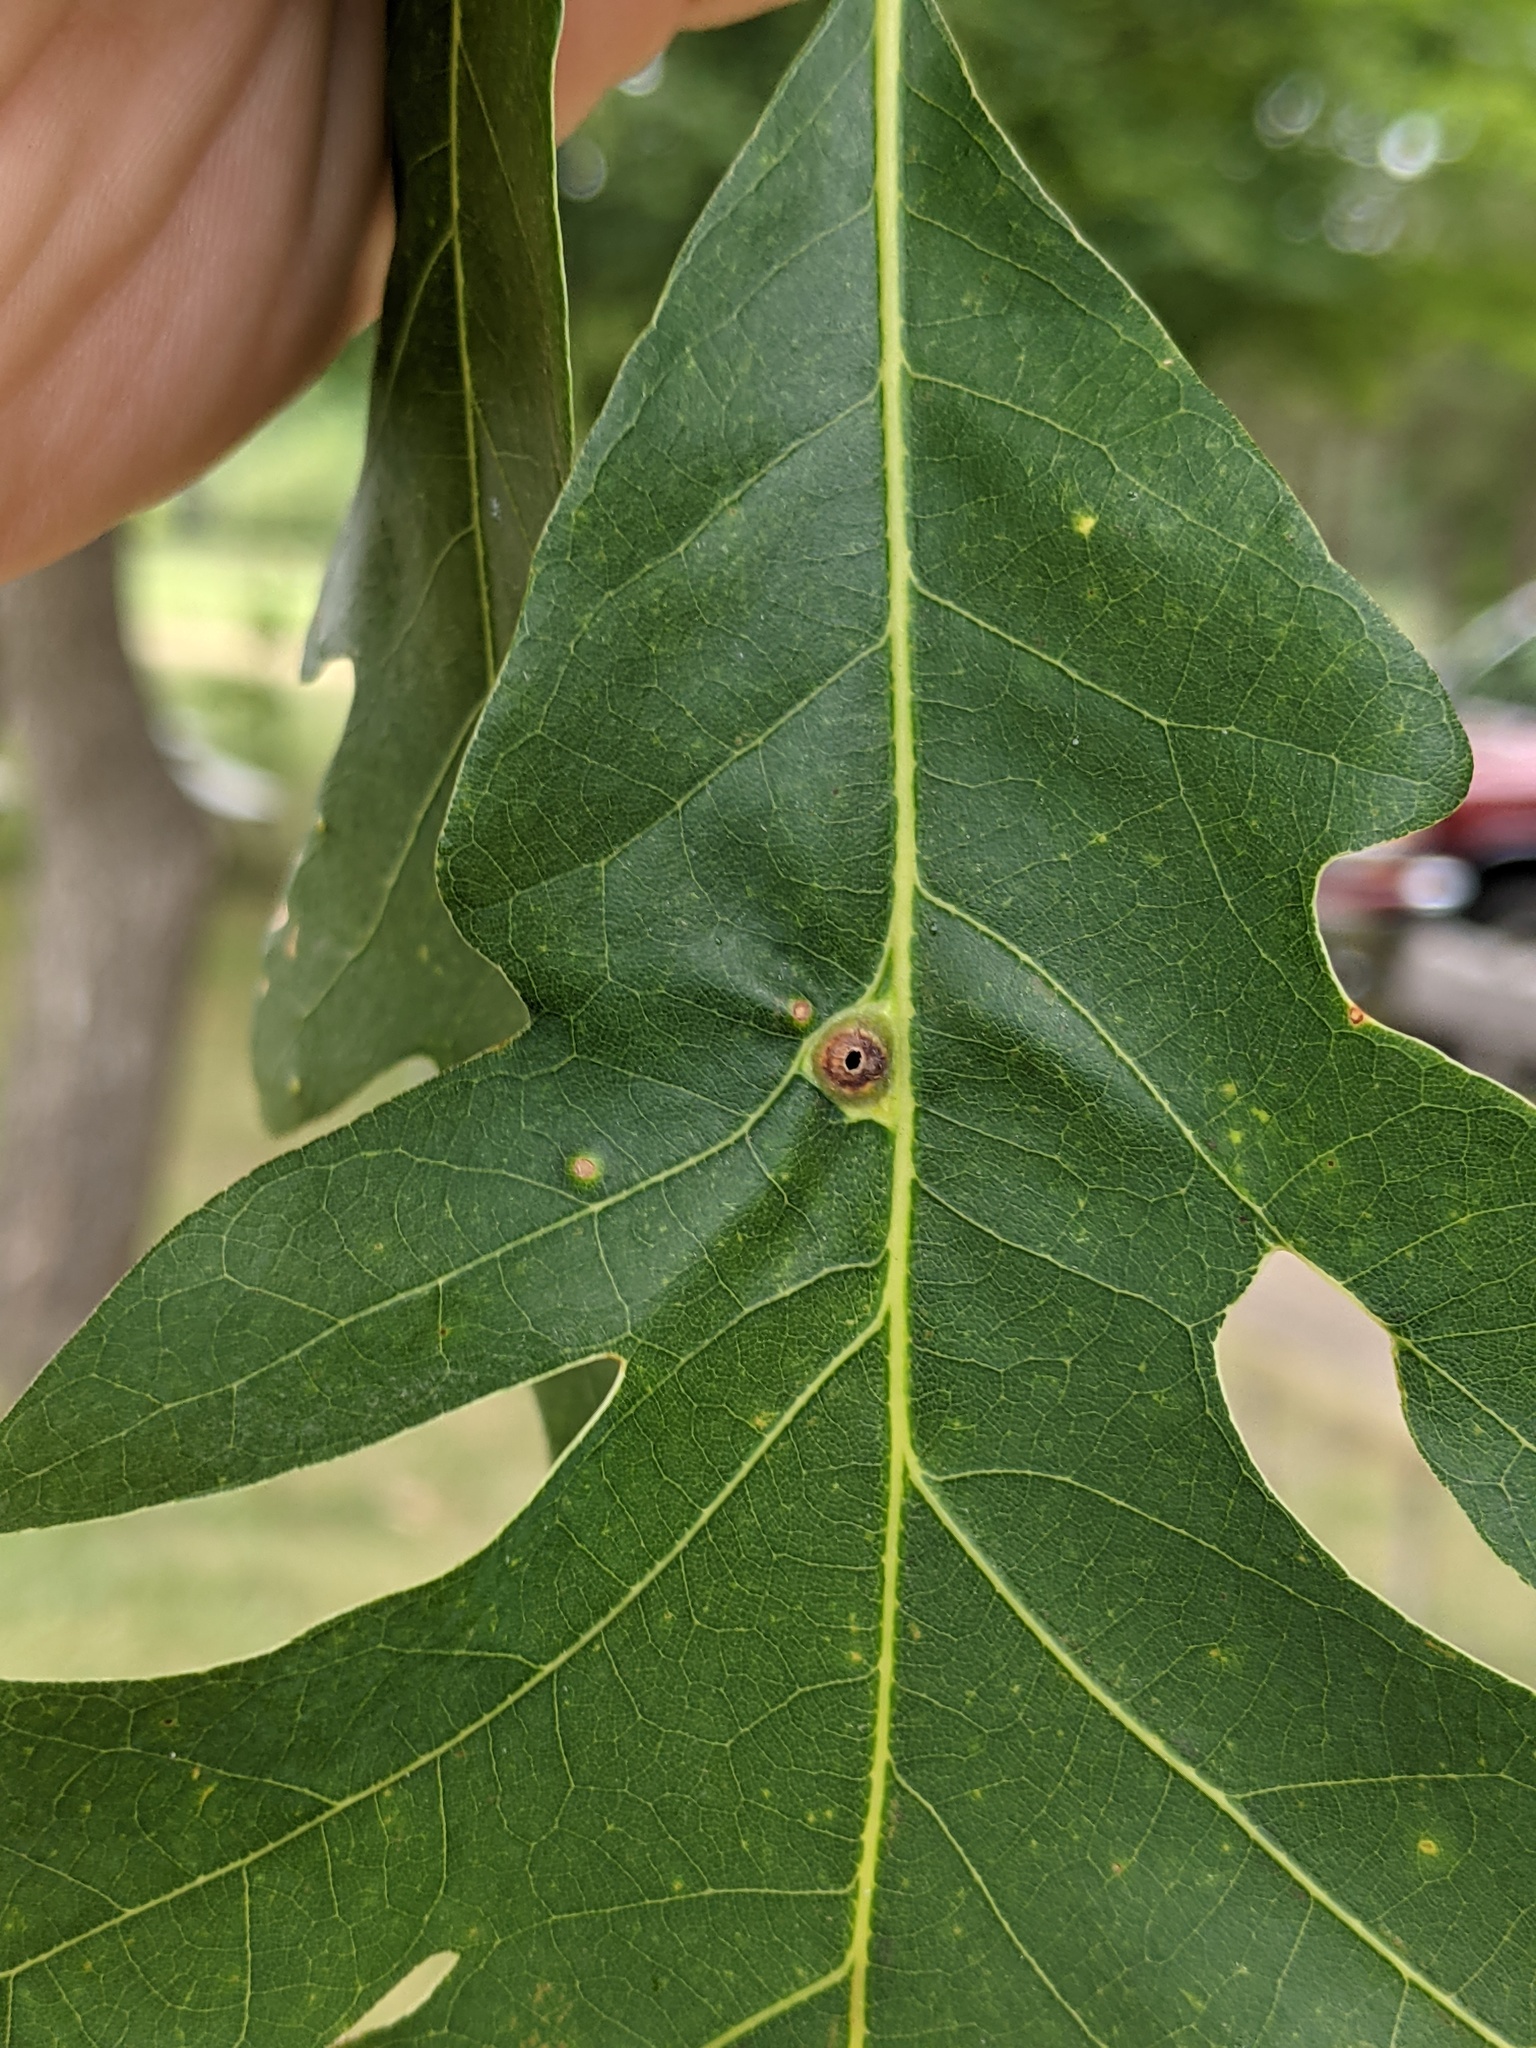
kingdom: Animalia
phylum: Arthropoda
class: Insecta
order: Hymenoptera
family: Cynipidae
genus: Andricus
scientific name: Andricus
